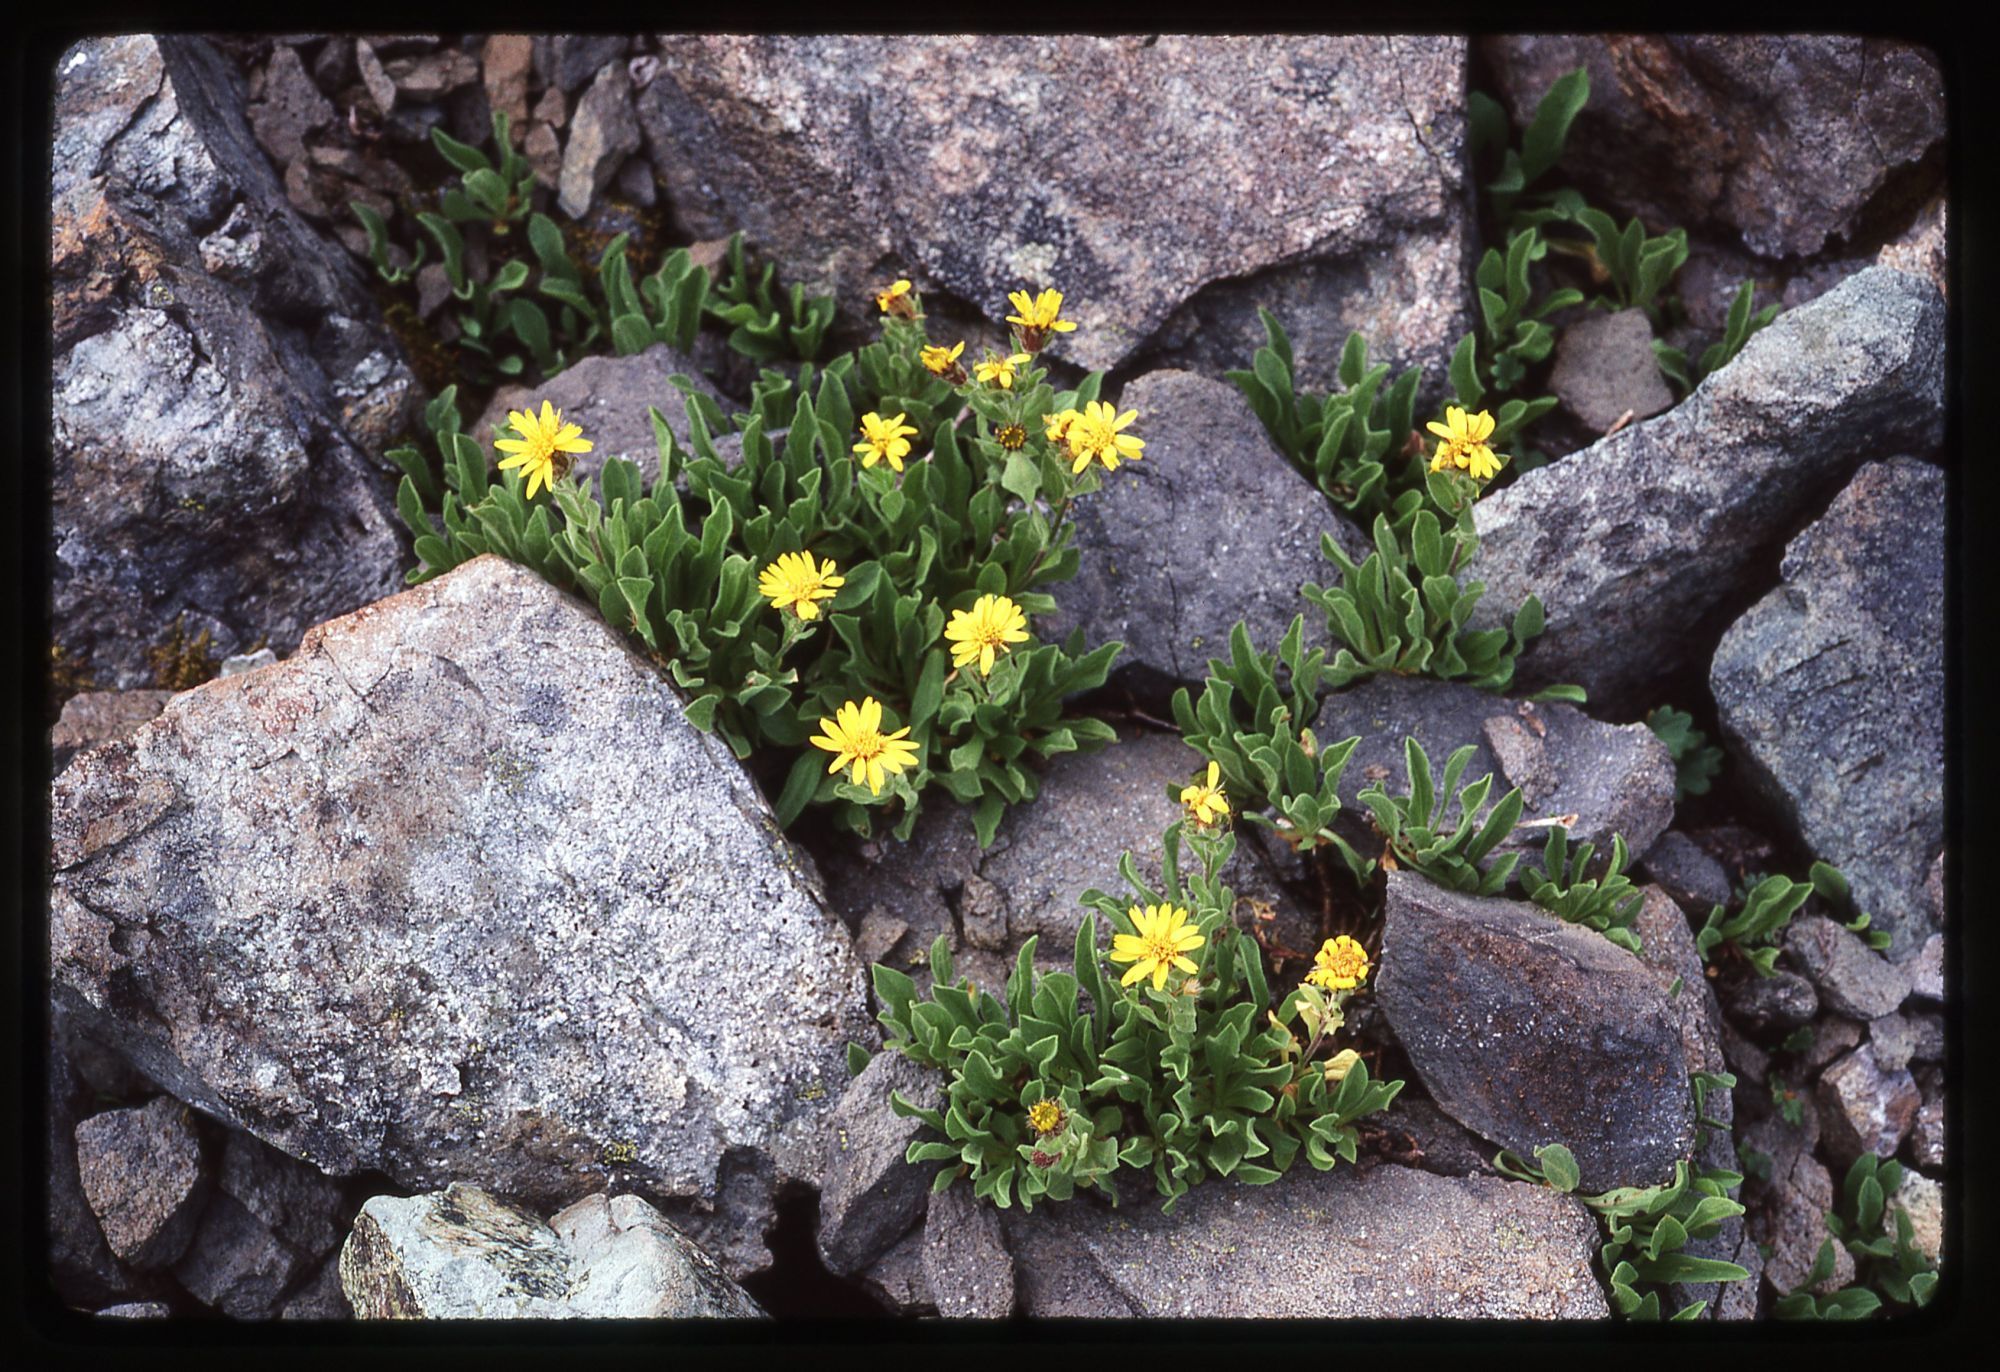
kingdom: Plantae
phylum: Tracheophyta
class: Magnoliopsida
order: Asterales
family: Asteraceae
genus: Tonestus
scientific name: Tonestus lyallii
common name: Lyall's goldenweed
